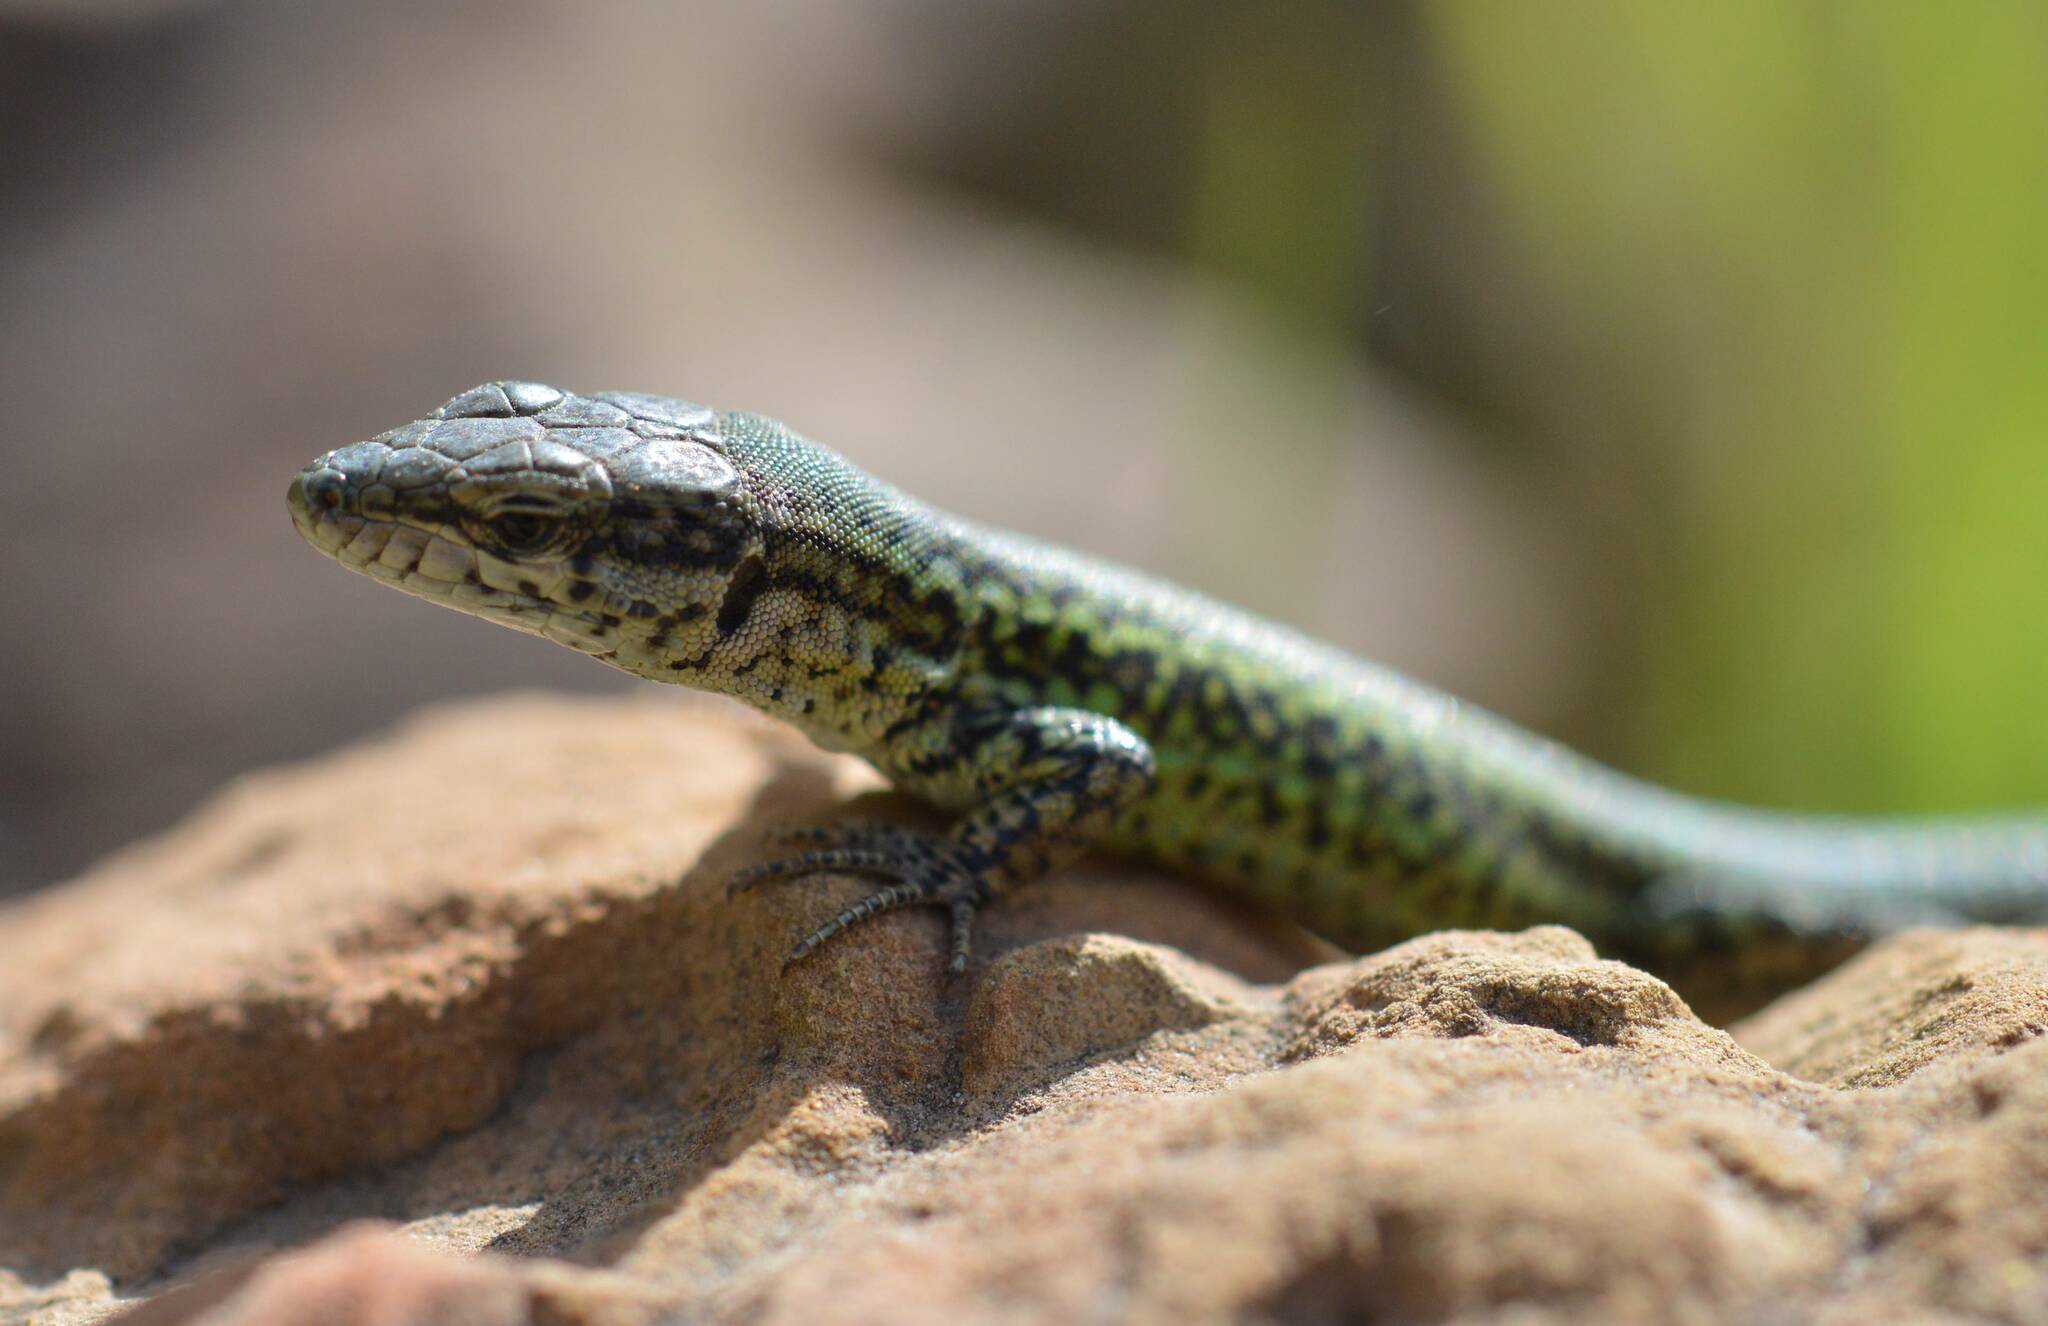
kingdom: Animalia
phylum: Chordata
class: Squamata
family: Lacertidae
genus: Podarcis
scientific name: Podarcis vaucheri
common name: Vaucher's wall lizard
